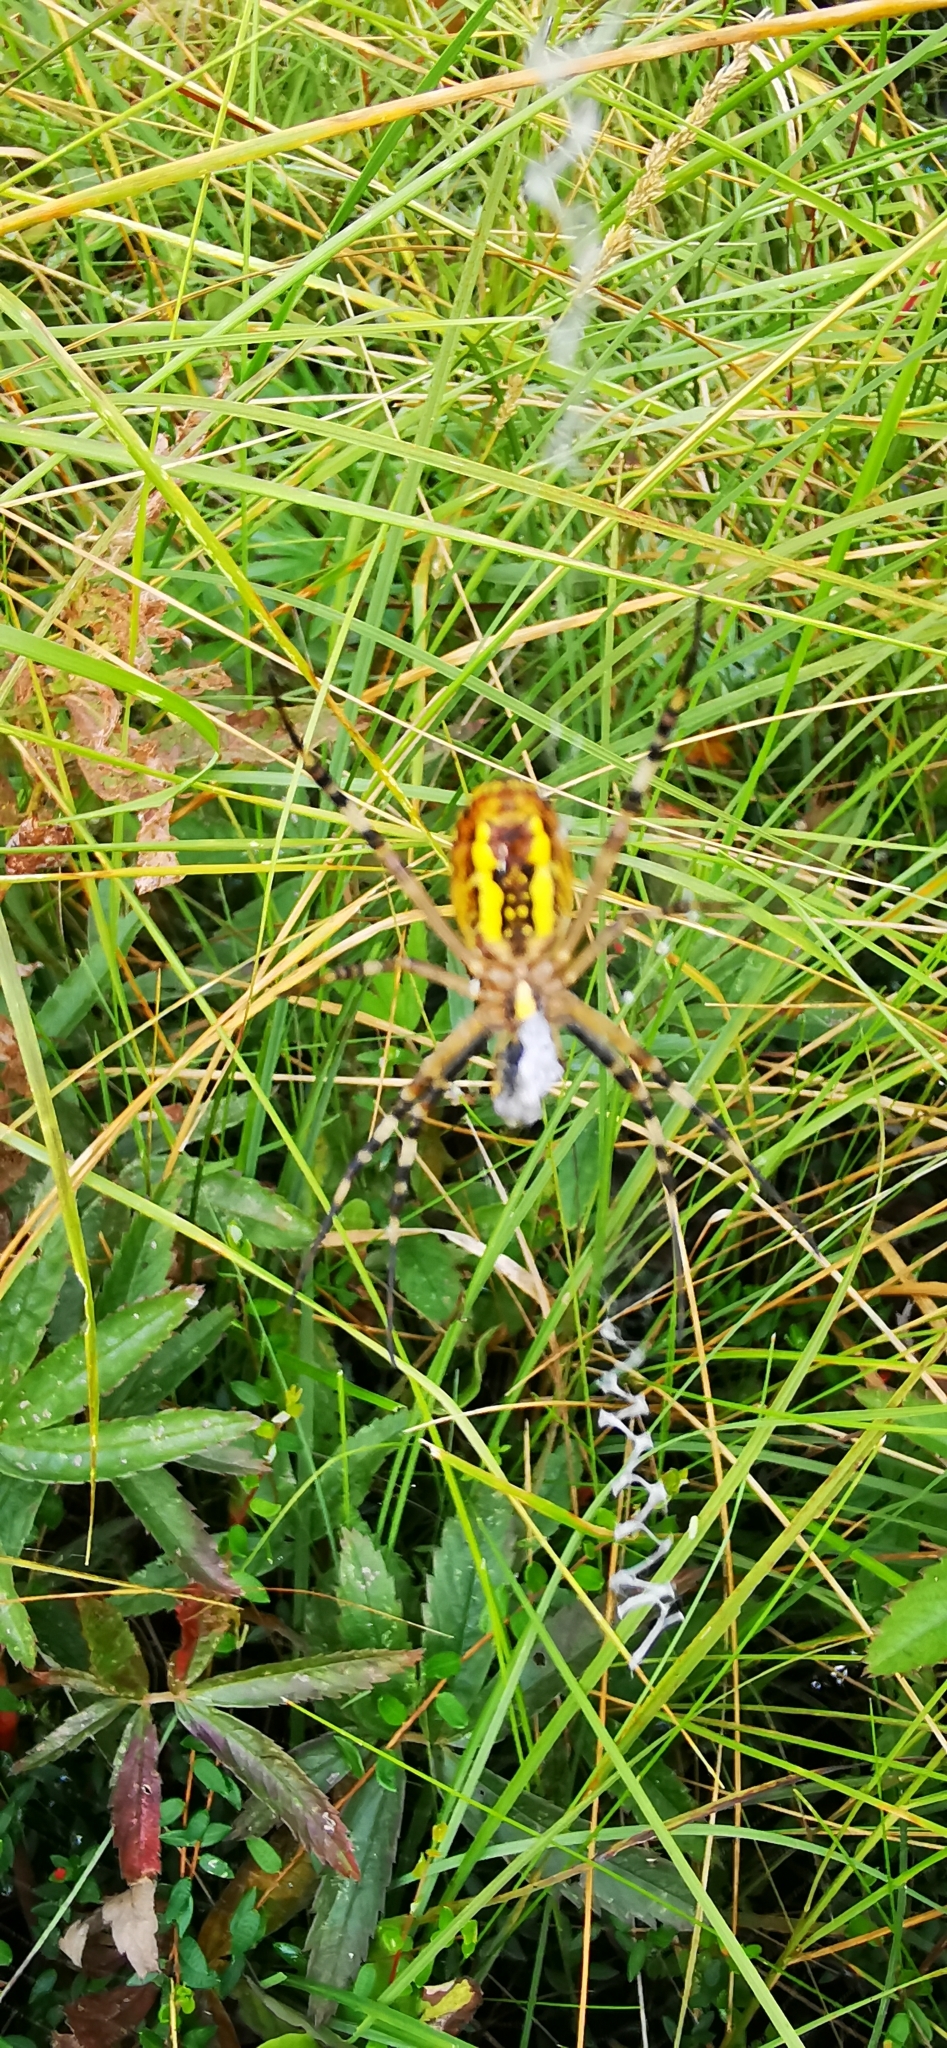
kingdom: Animalia
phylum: Arthropoda
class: Arachnida
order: Araneae
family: Araneidae
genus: Argiope
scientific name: Argiope bruennichi
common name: Wasp spider
